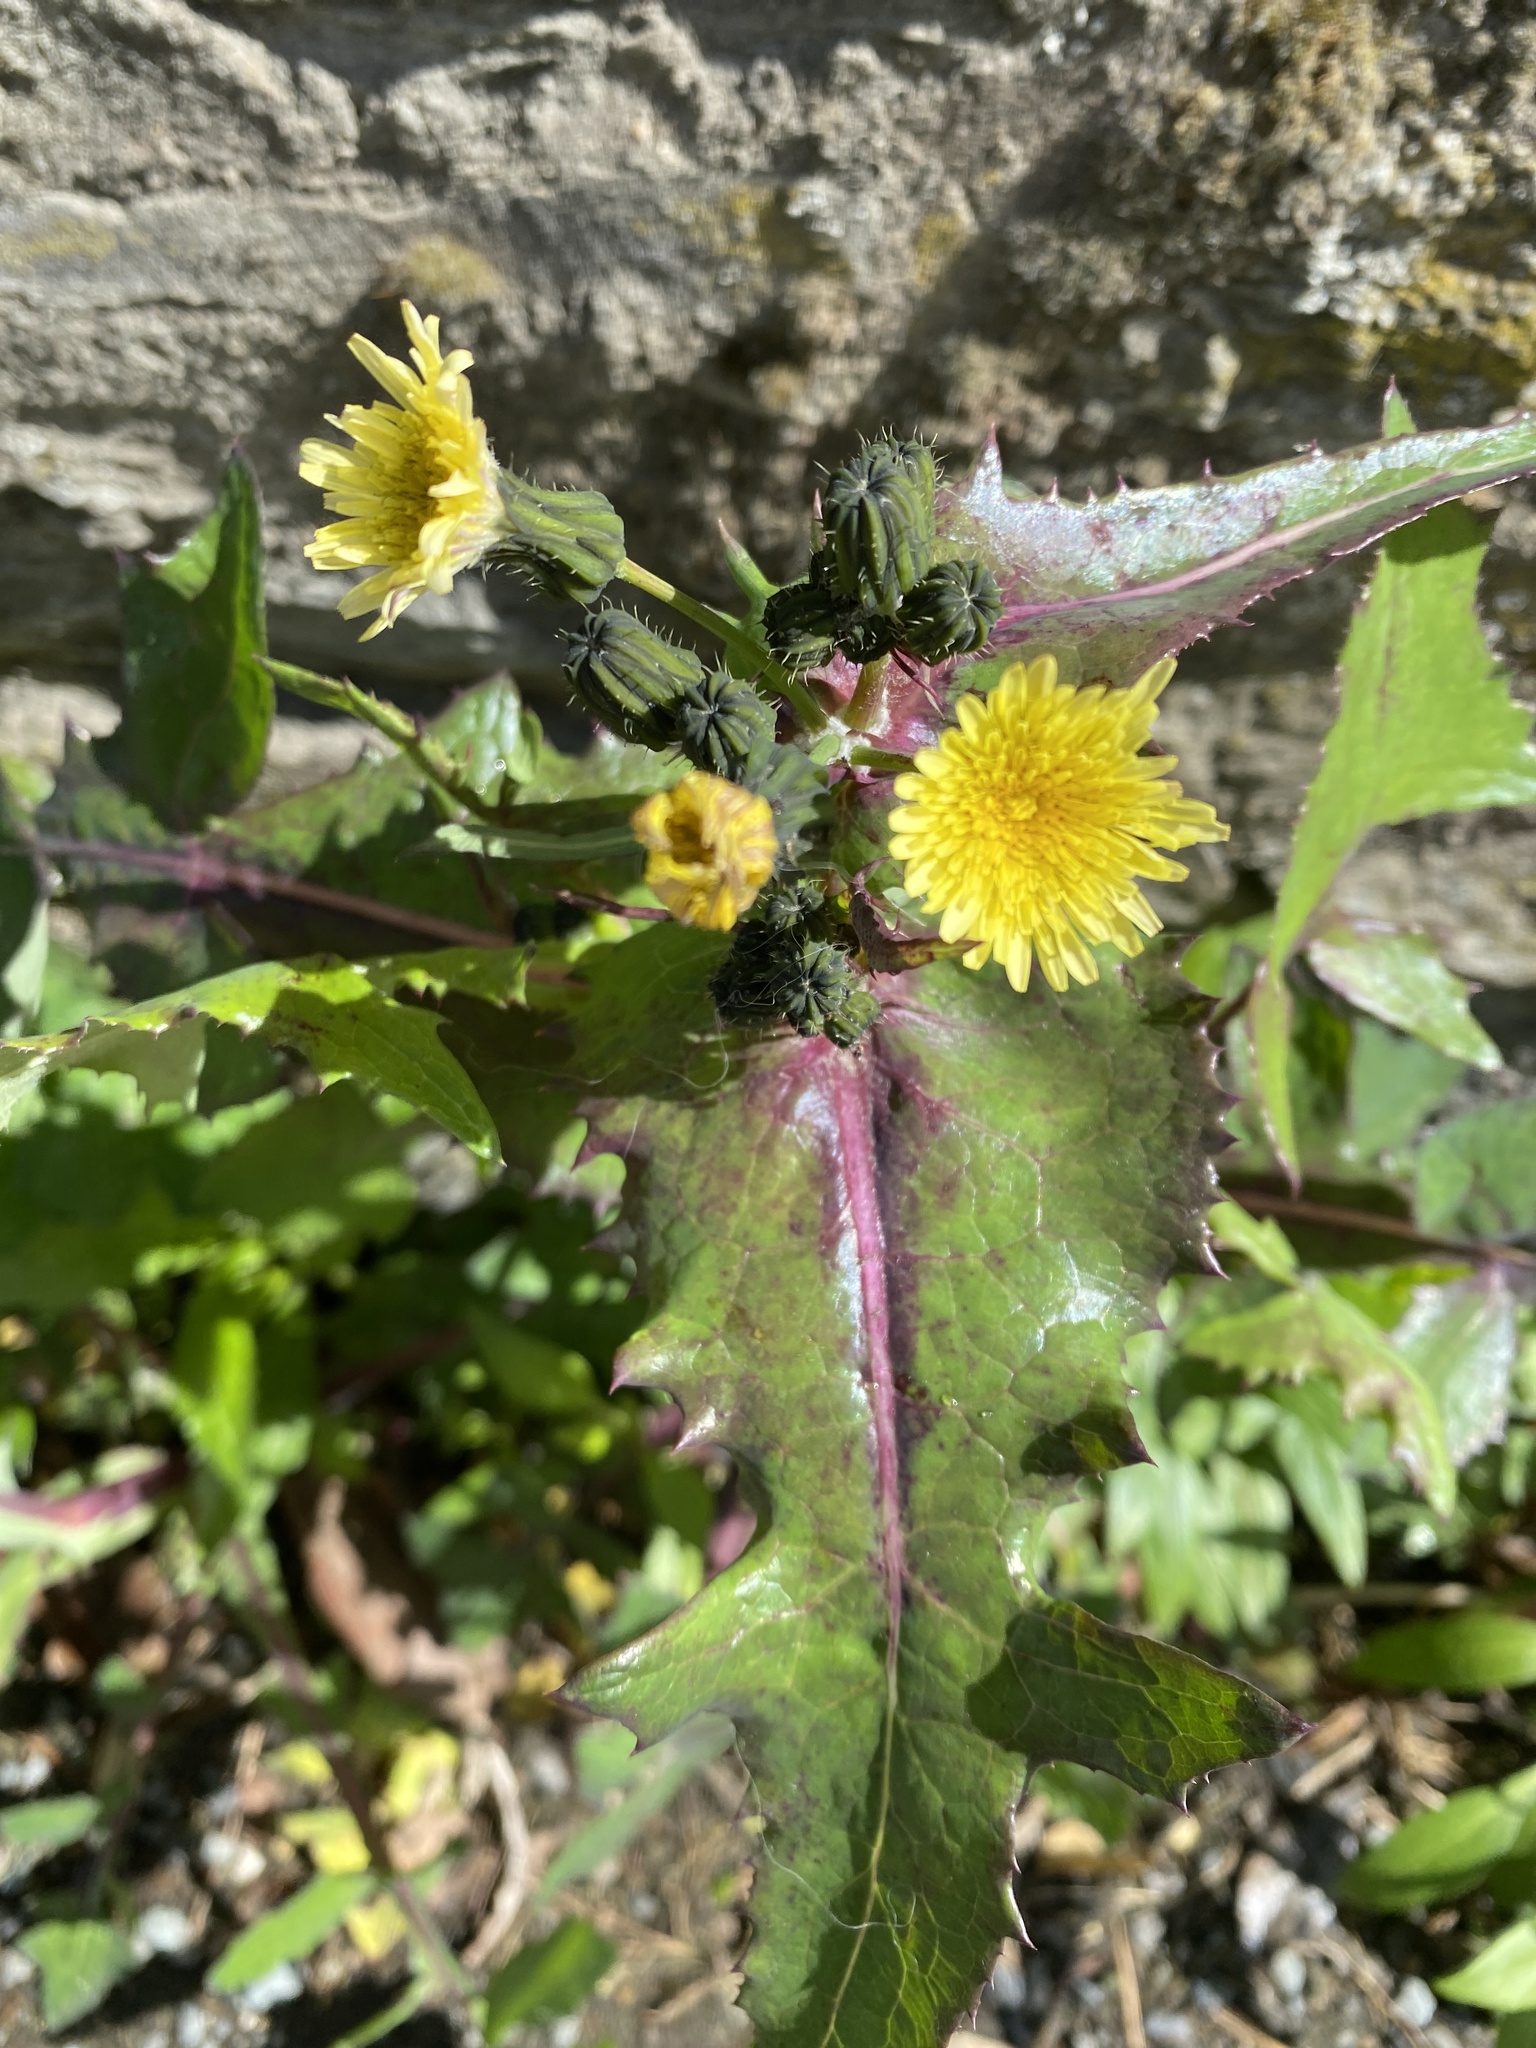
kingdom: Plantae
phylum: Tracheophyta
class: Magnoliopsida
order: Asterales
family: Asteraceae
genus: Sonchus
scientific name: Sonchus oleraceus
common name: Common sowthistle
